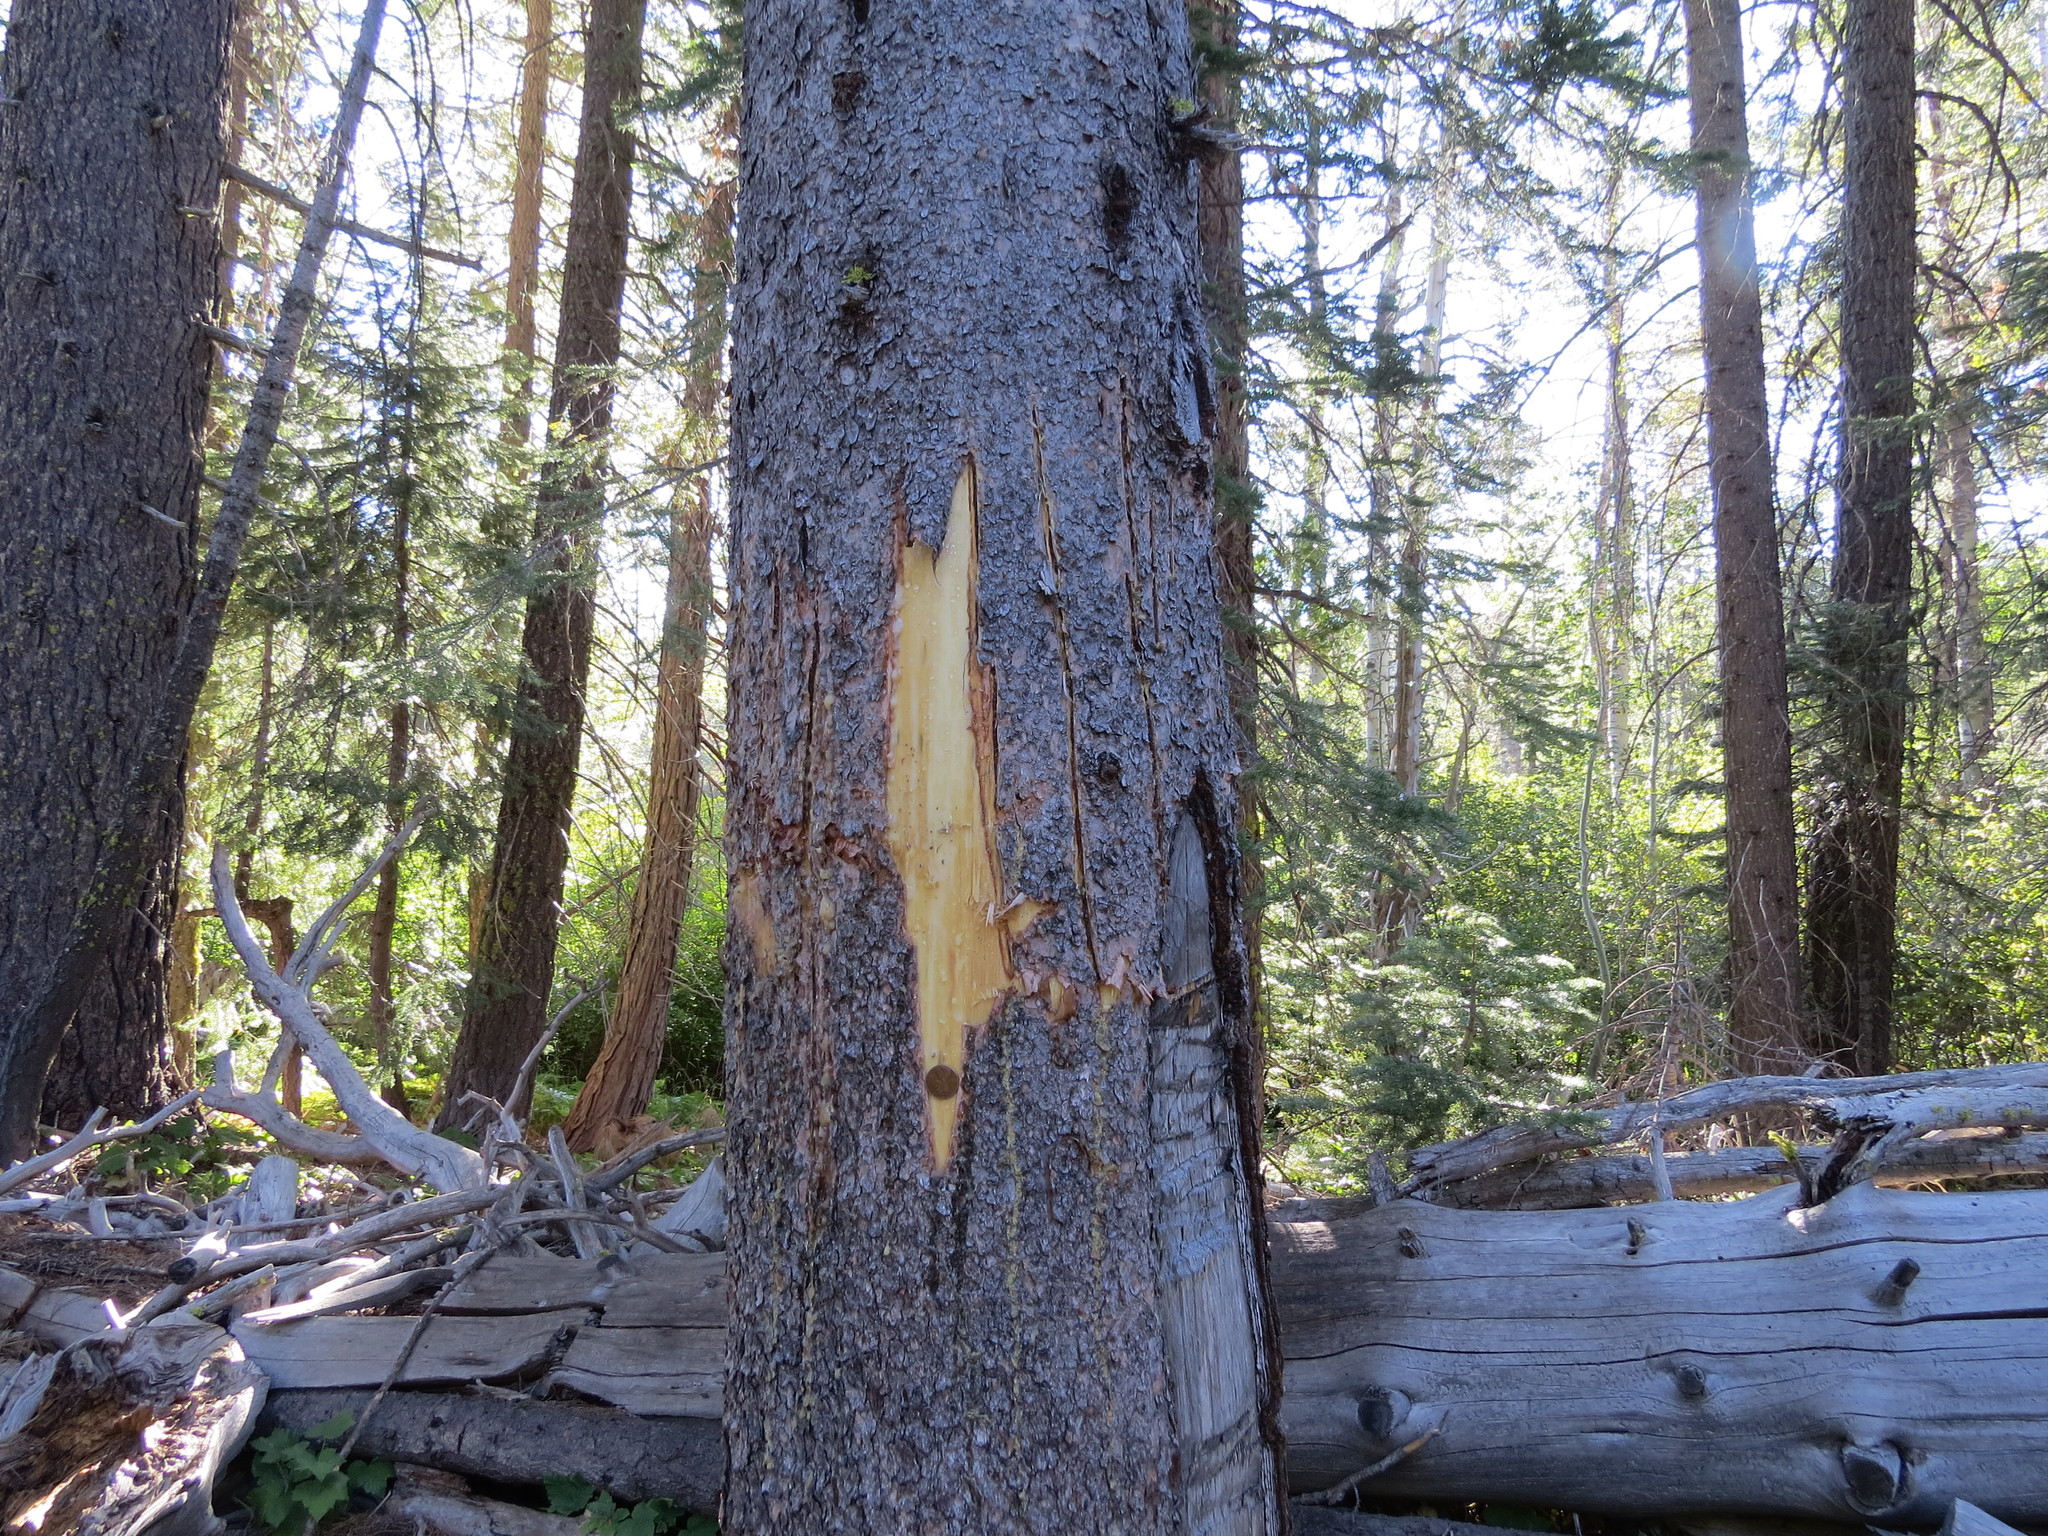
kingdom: Animalia
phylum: Chordata
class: Mammalia
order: Carnivora
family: Ursidae
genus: Ursus
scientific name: Ursus americanus
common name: American black bear
